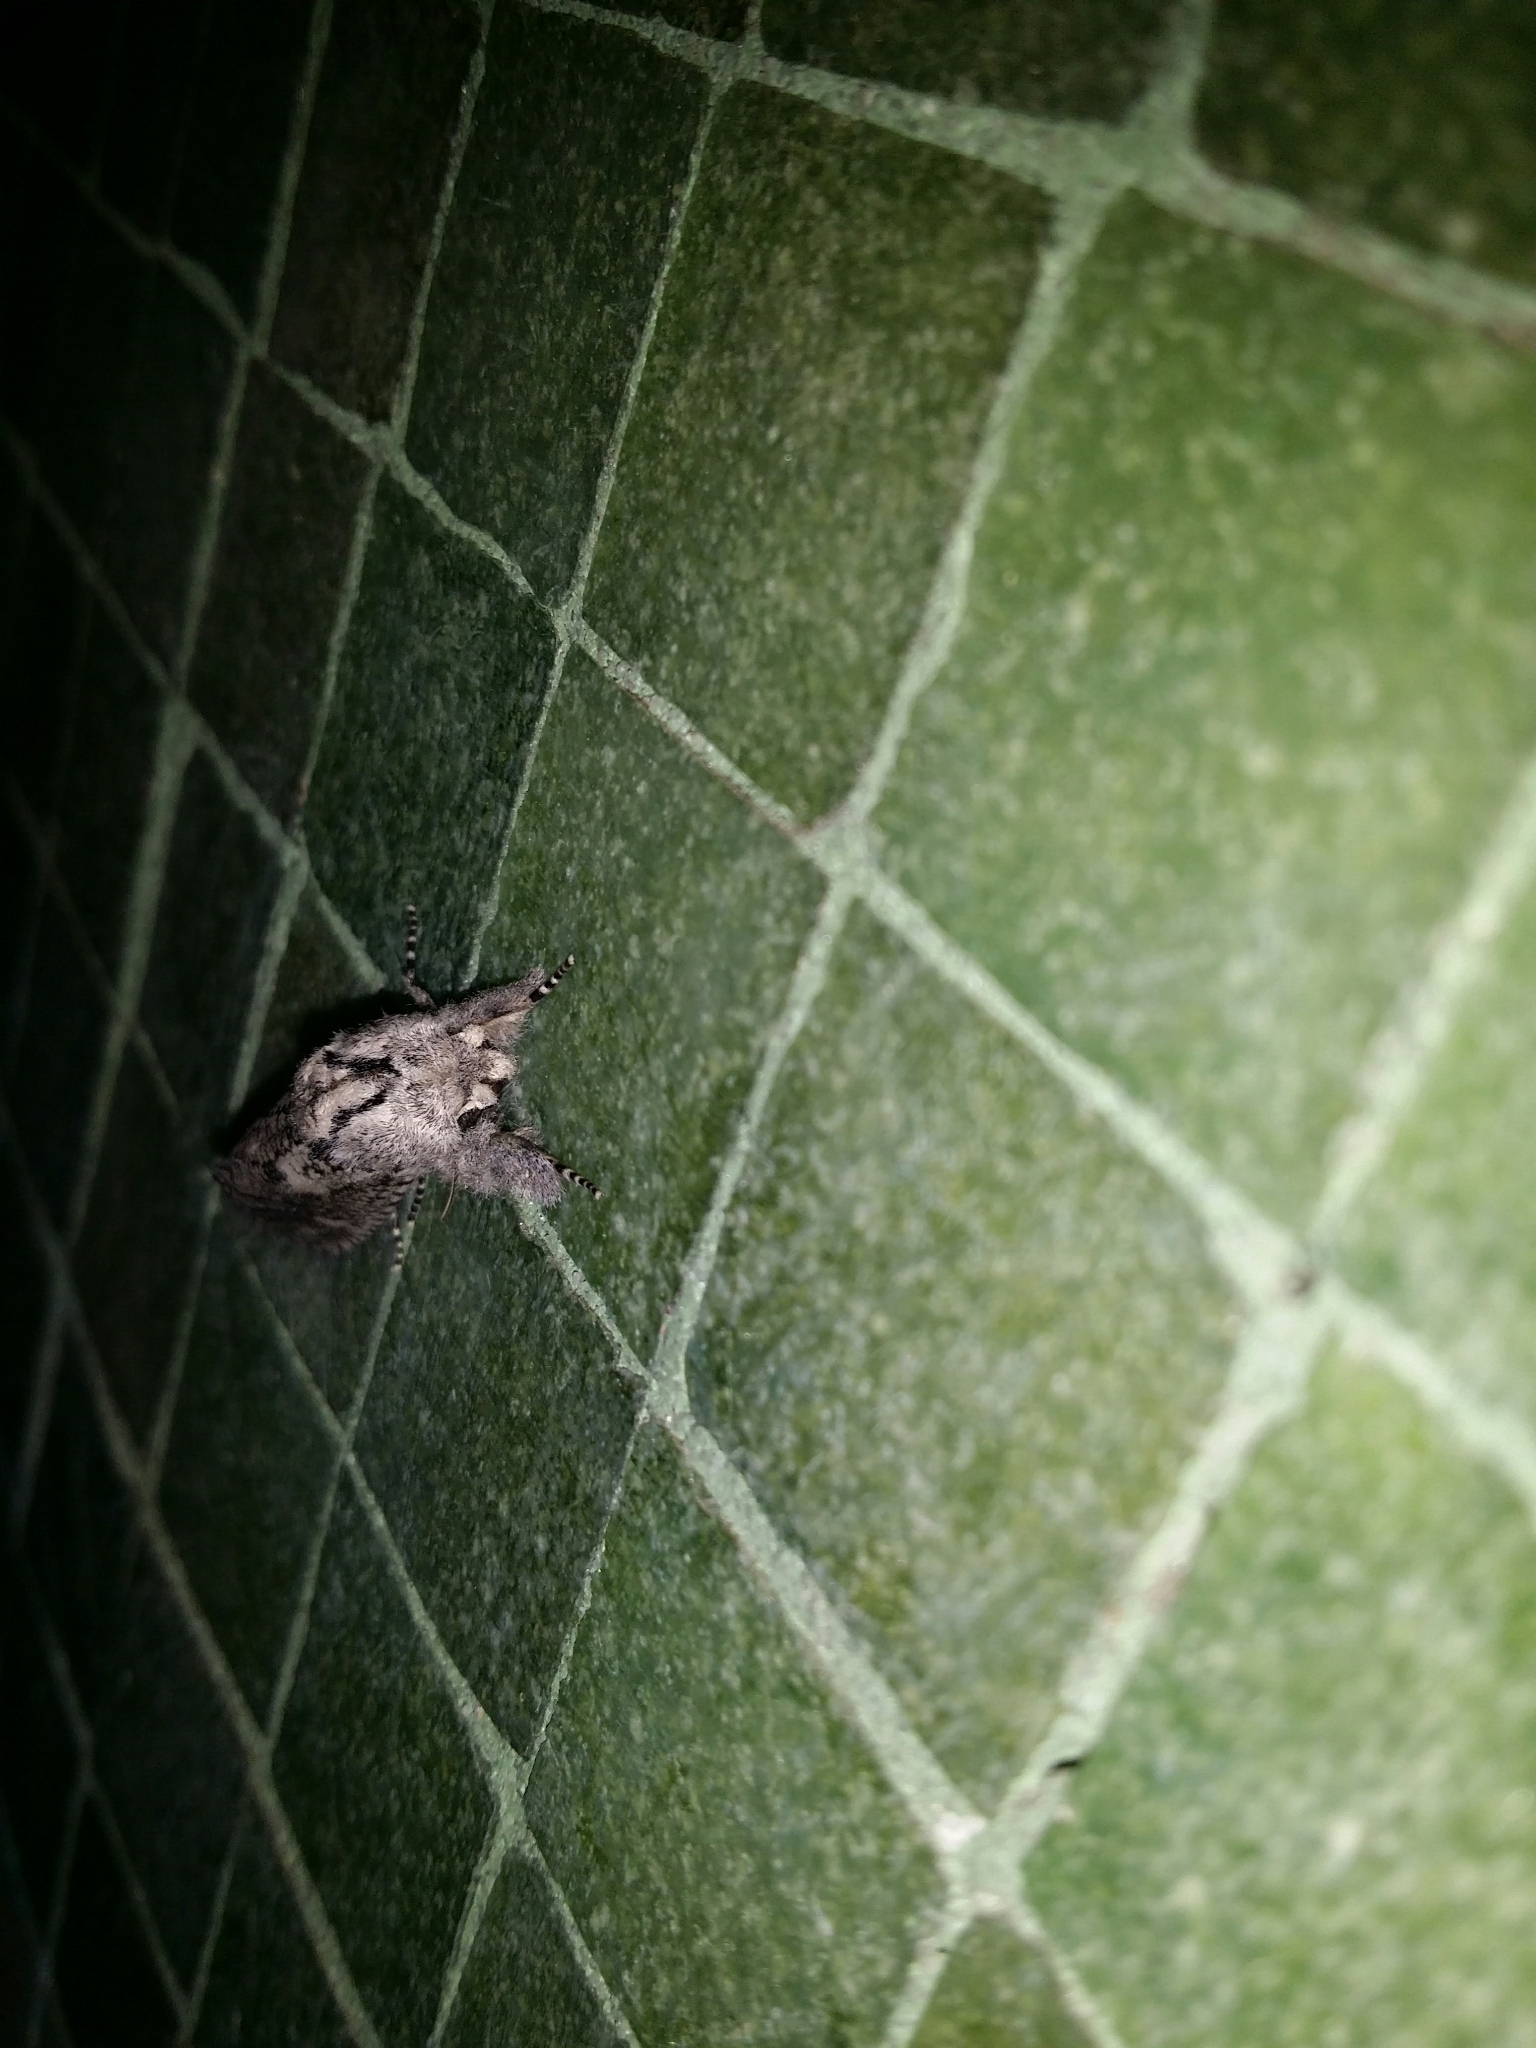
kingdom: Animalia
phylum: Arthropoda
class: Insecta
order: Lepidoptera
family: Cossidae
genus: Endoxyla
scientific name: Endoxyla coscinophanes
